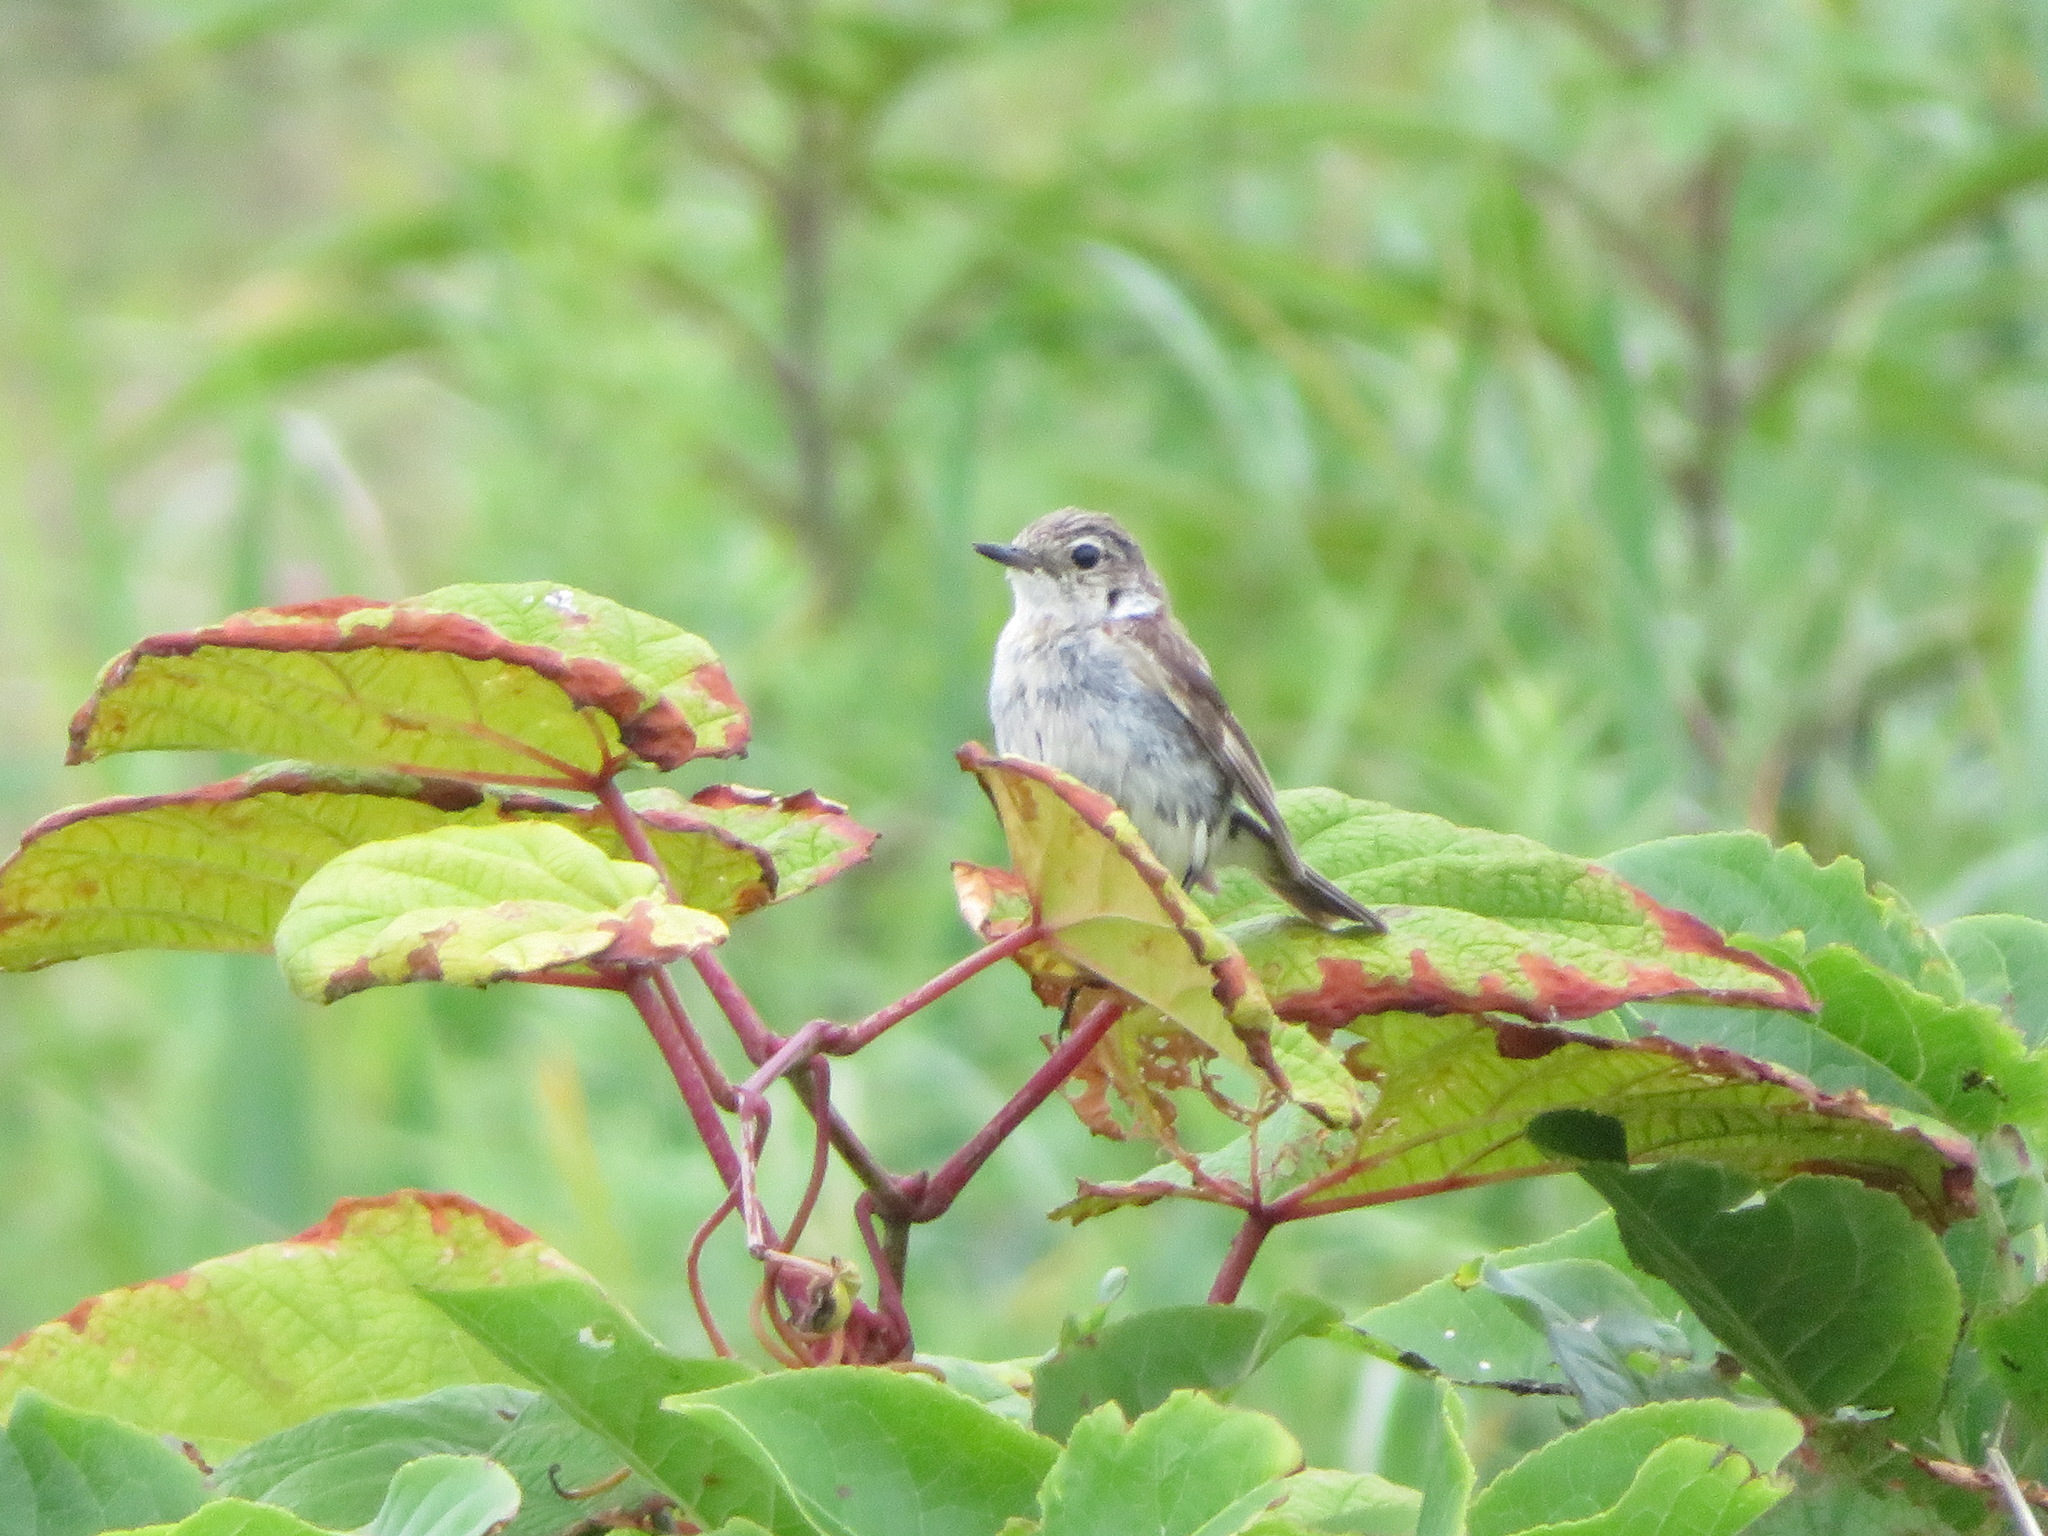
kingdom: Animalia
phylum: Chordata
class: Aves
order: Passeriformes
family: Muscicapidae
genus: Saxicola
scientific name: Saxicola stejnegeri
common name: Stejneger's stonechat
